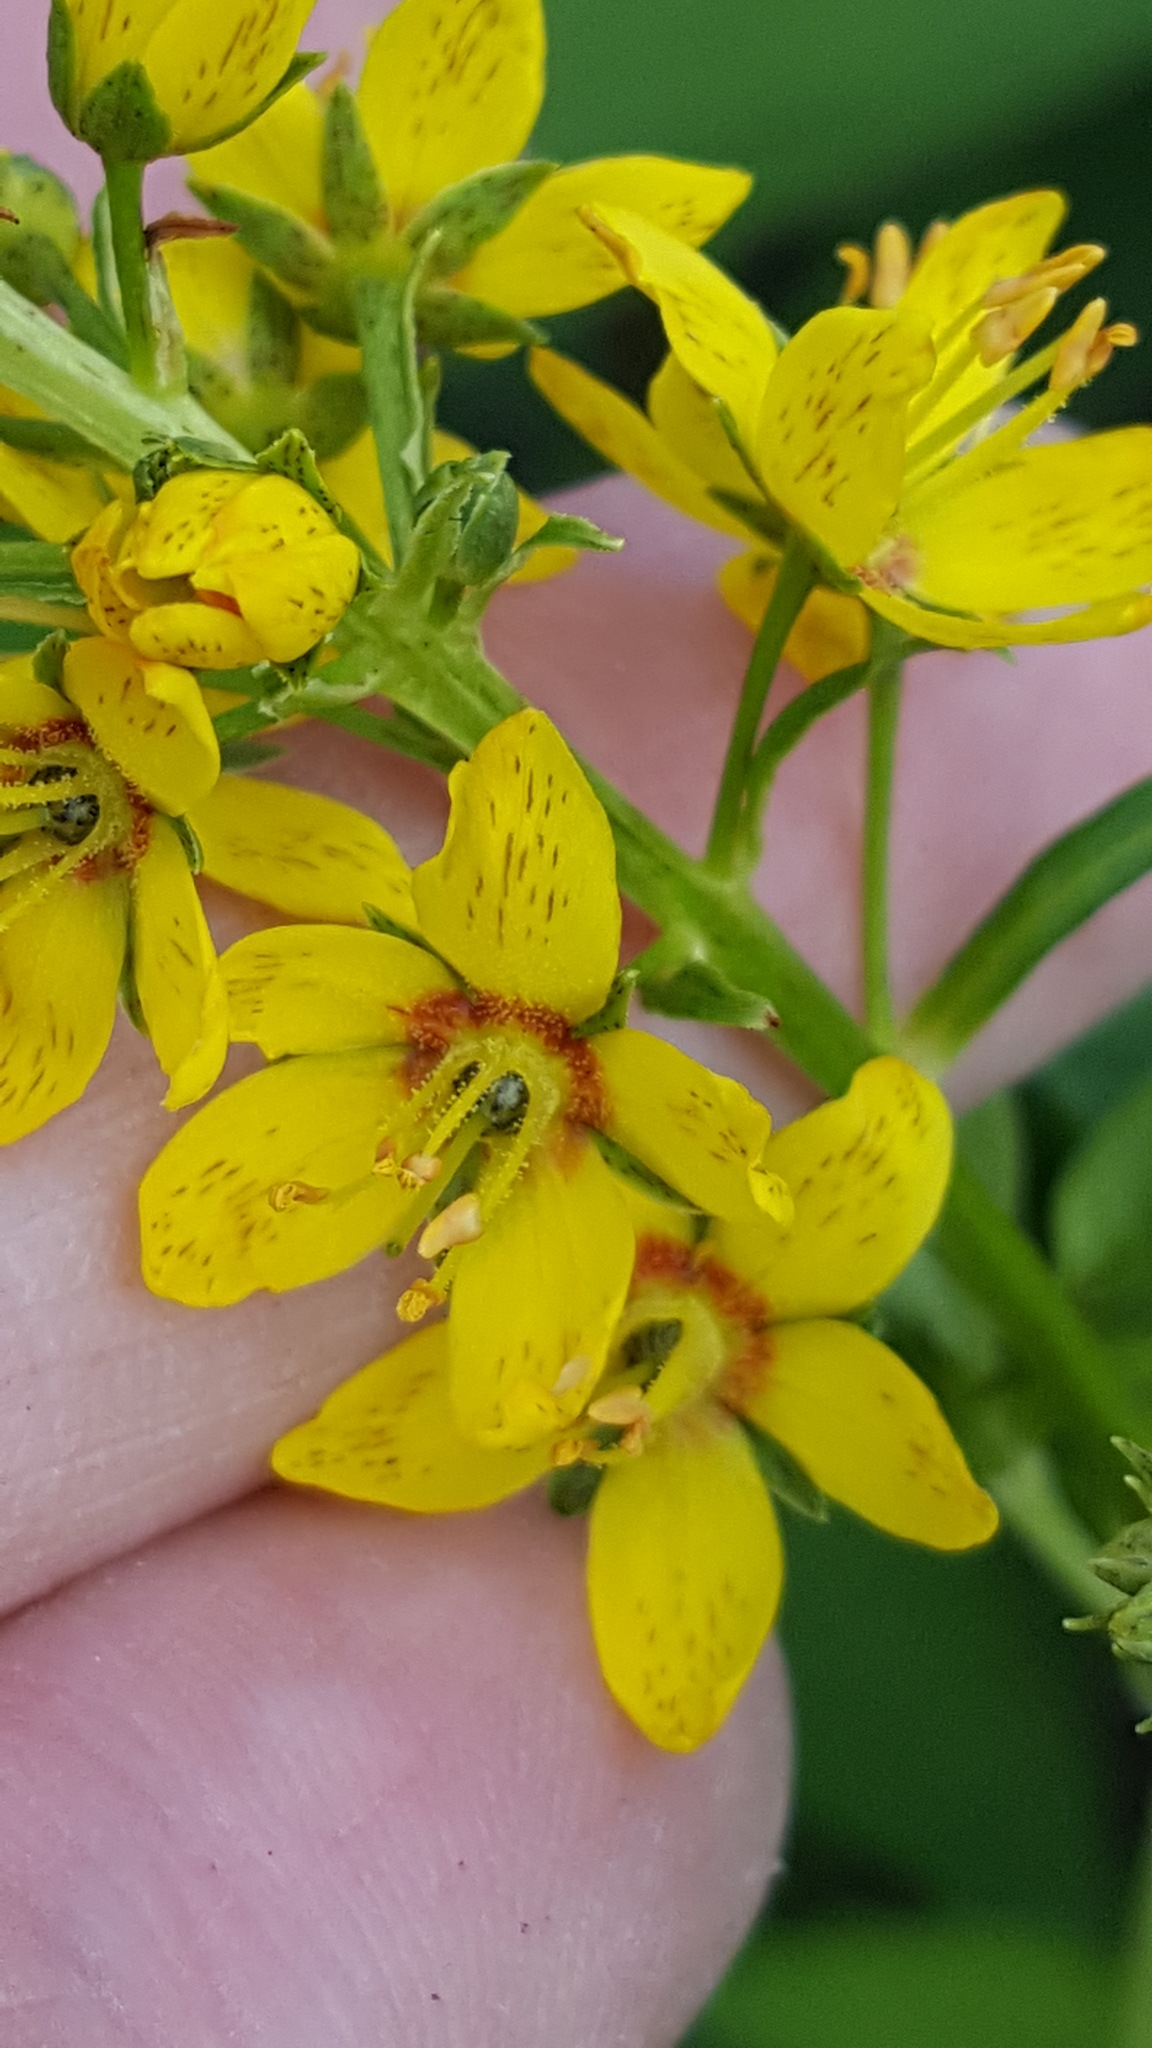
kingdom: Plantae
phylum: Tracheophyta
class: Magnoliopsida
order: Ericales
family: Primulaceae
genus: Lysimachia
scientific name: Lysimachia terrestris
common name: Lake loosestrife
